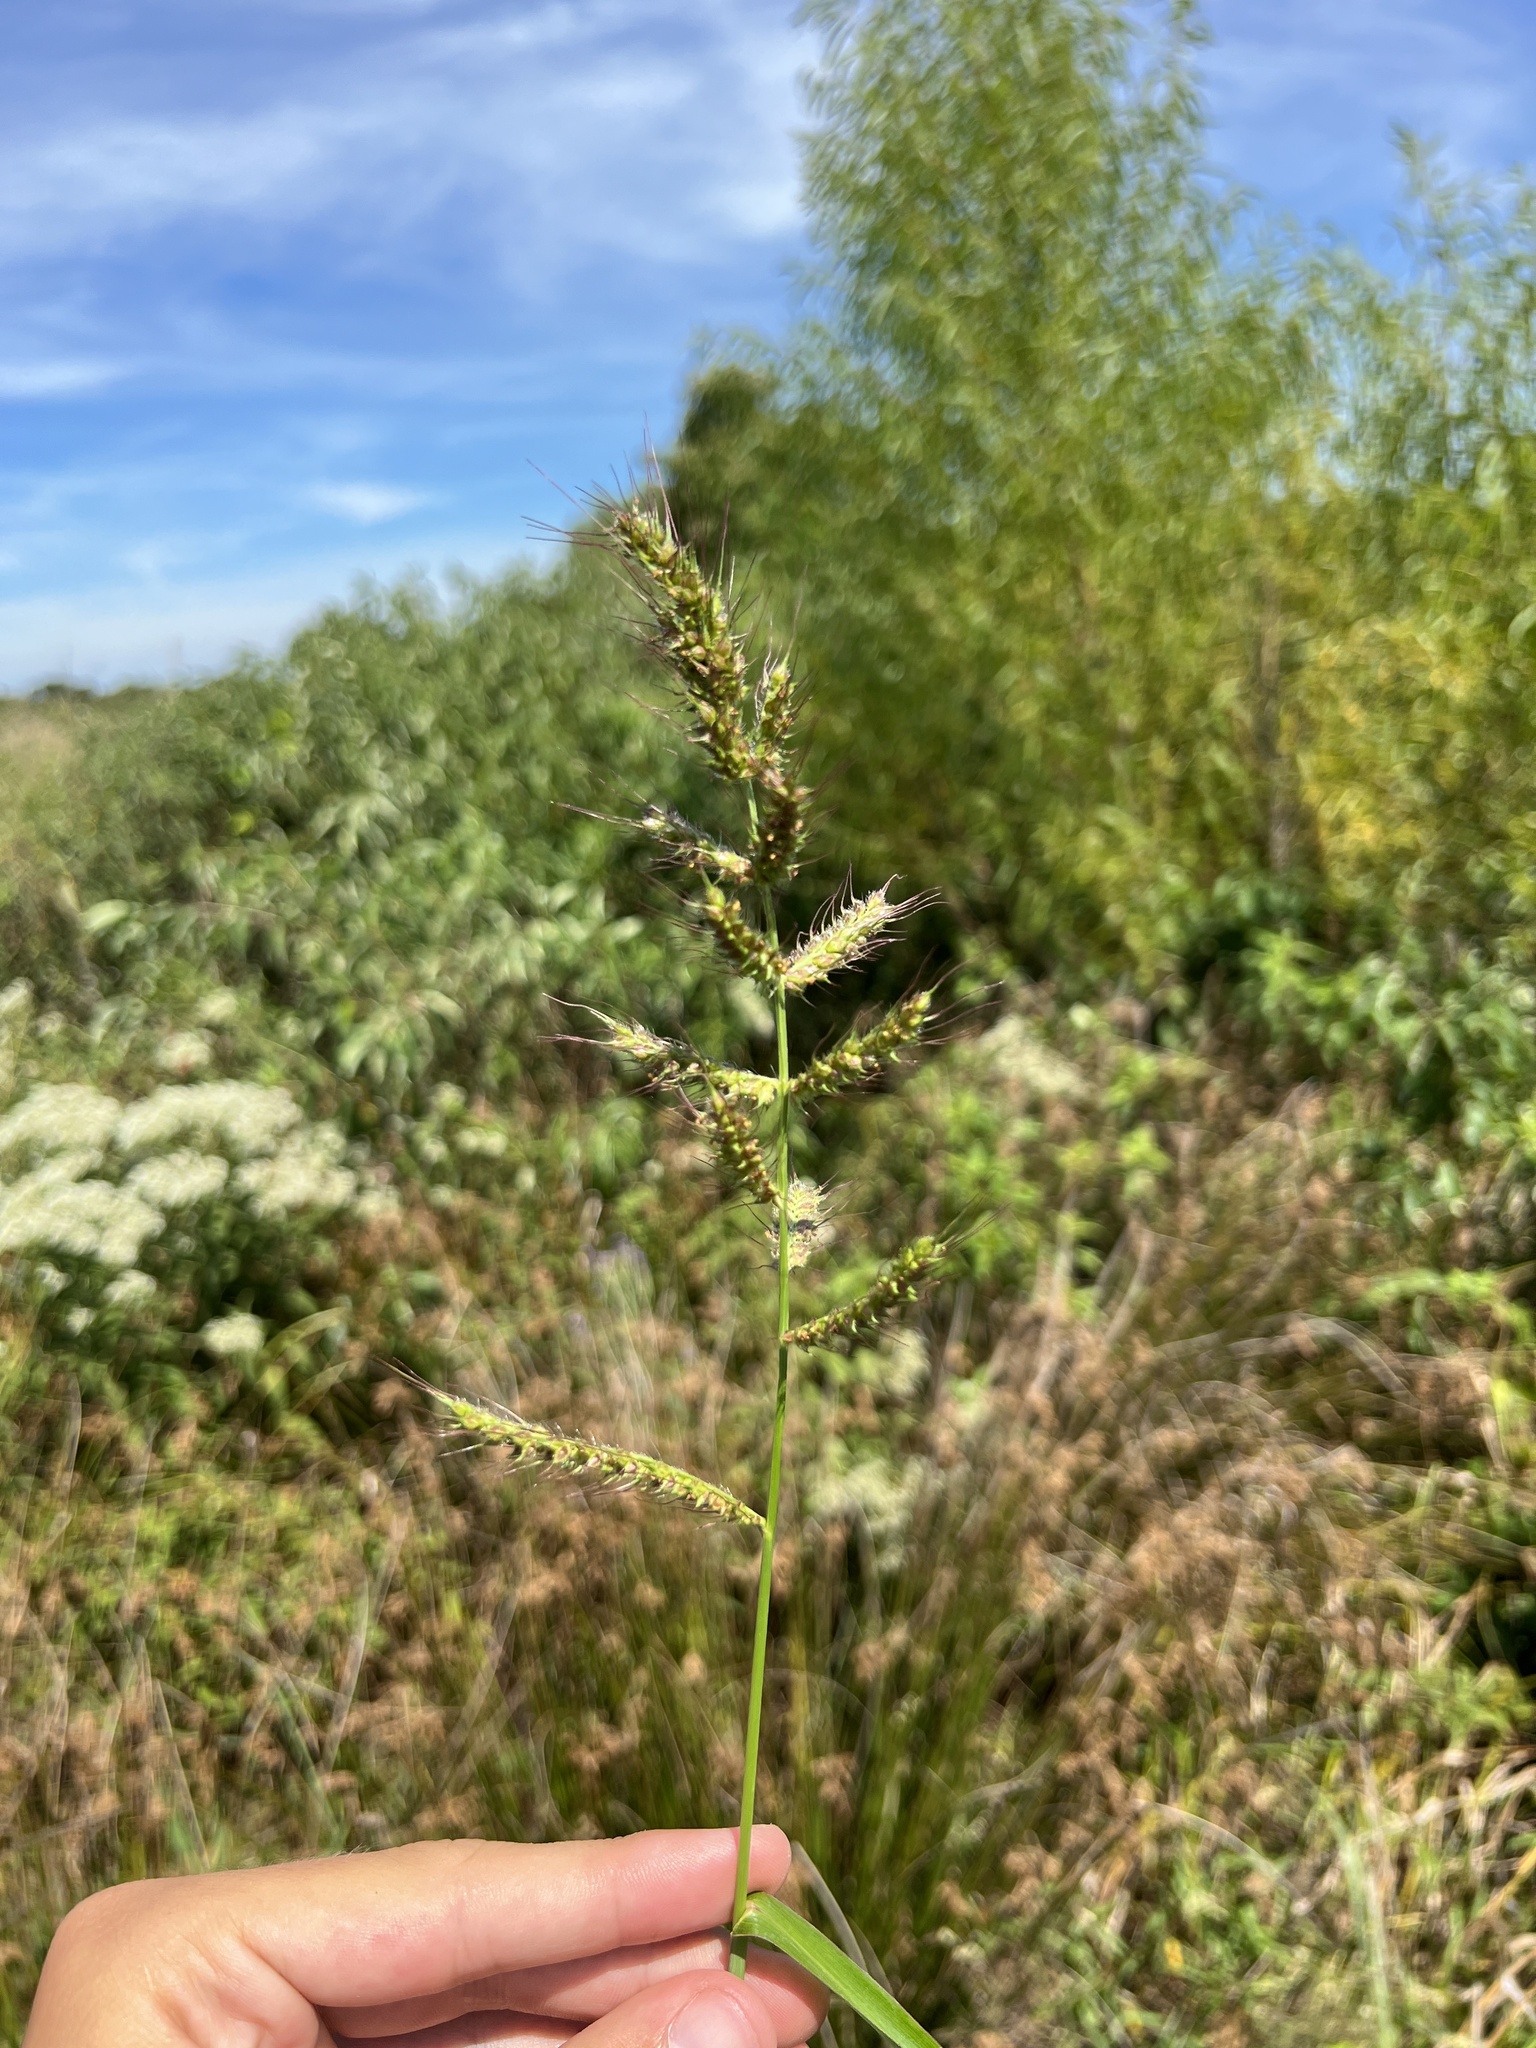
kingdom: Plantae
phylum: Tracheophyta
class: Liliopsida
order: Poales
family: Poaceae
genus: Echinochloa
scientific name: Echinochloa crus-galli
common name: Cockspur
